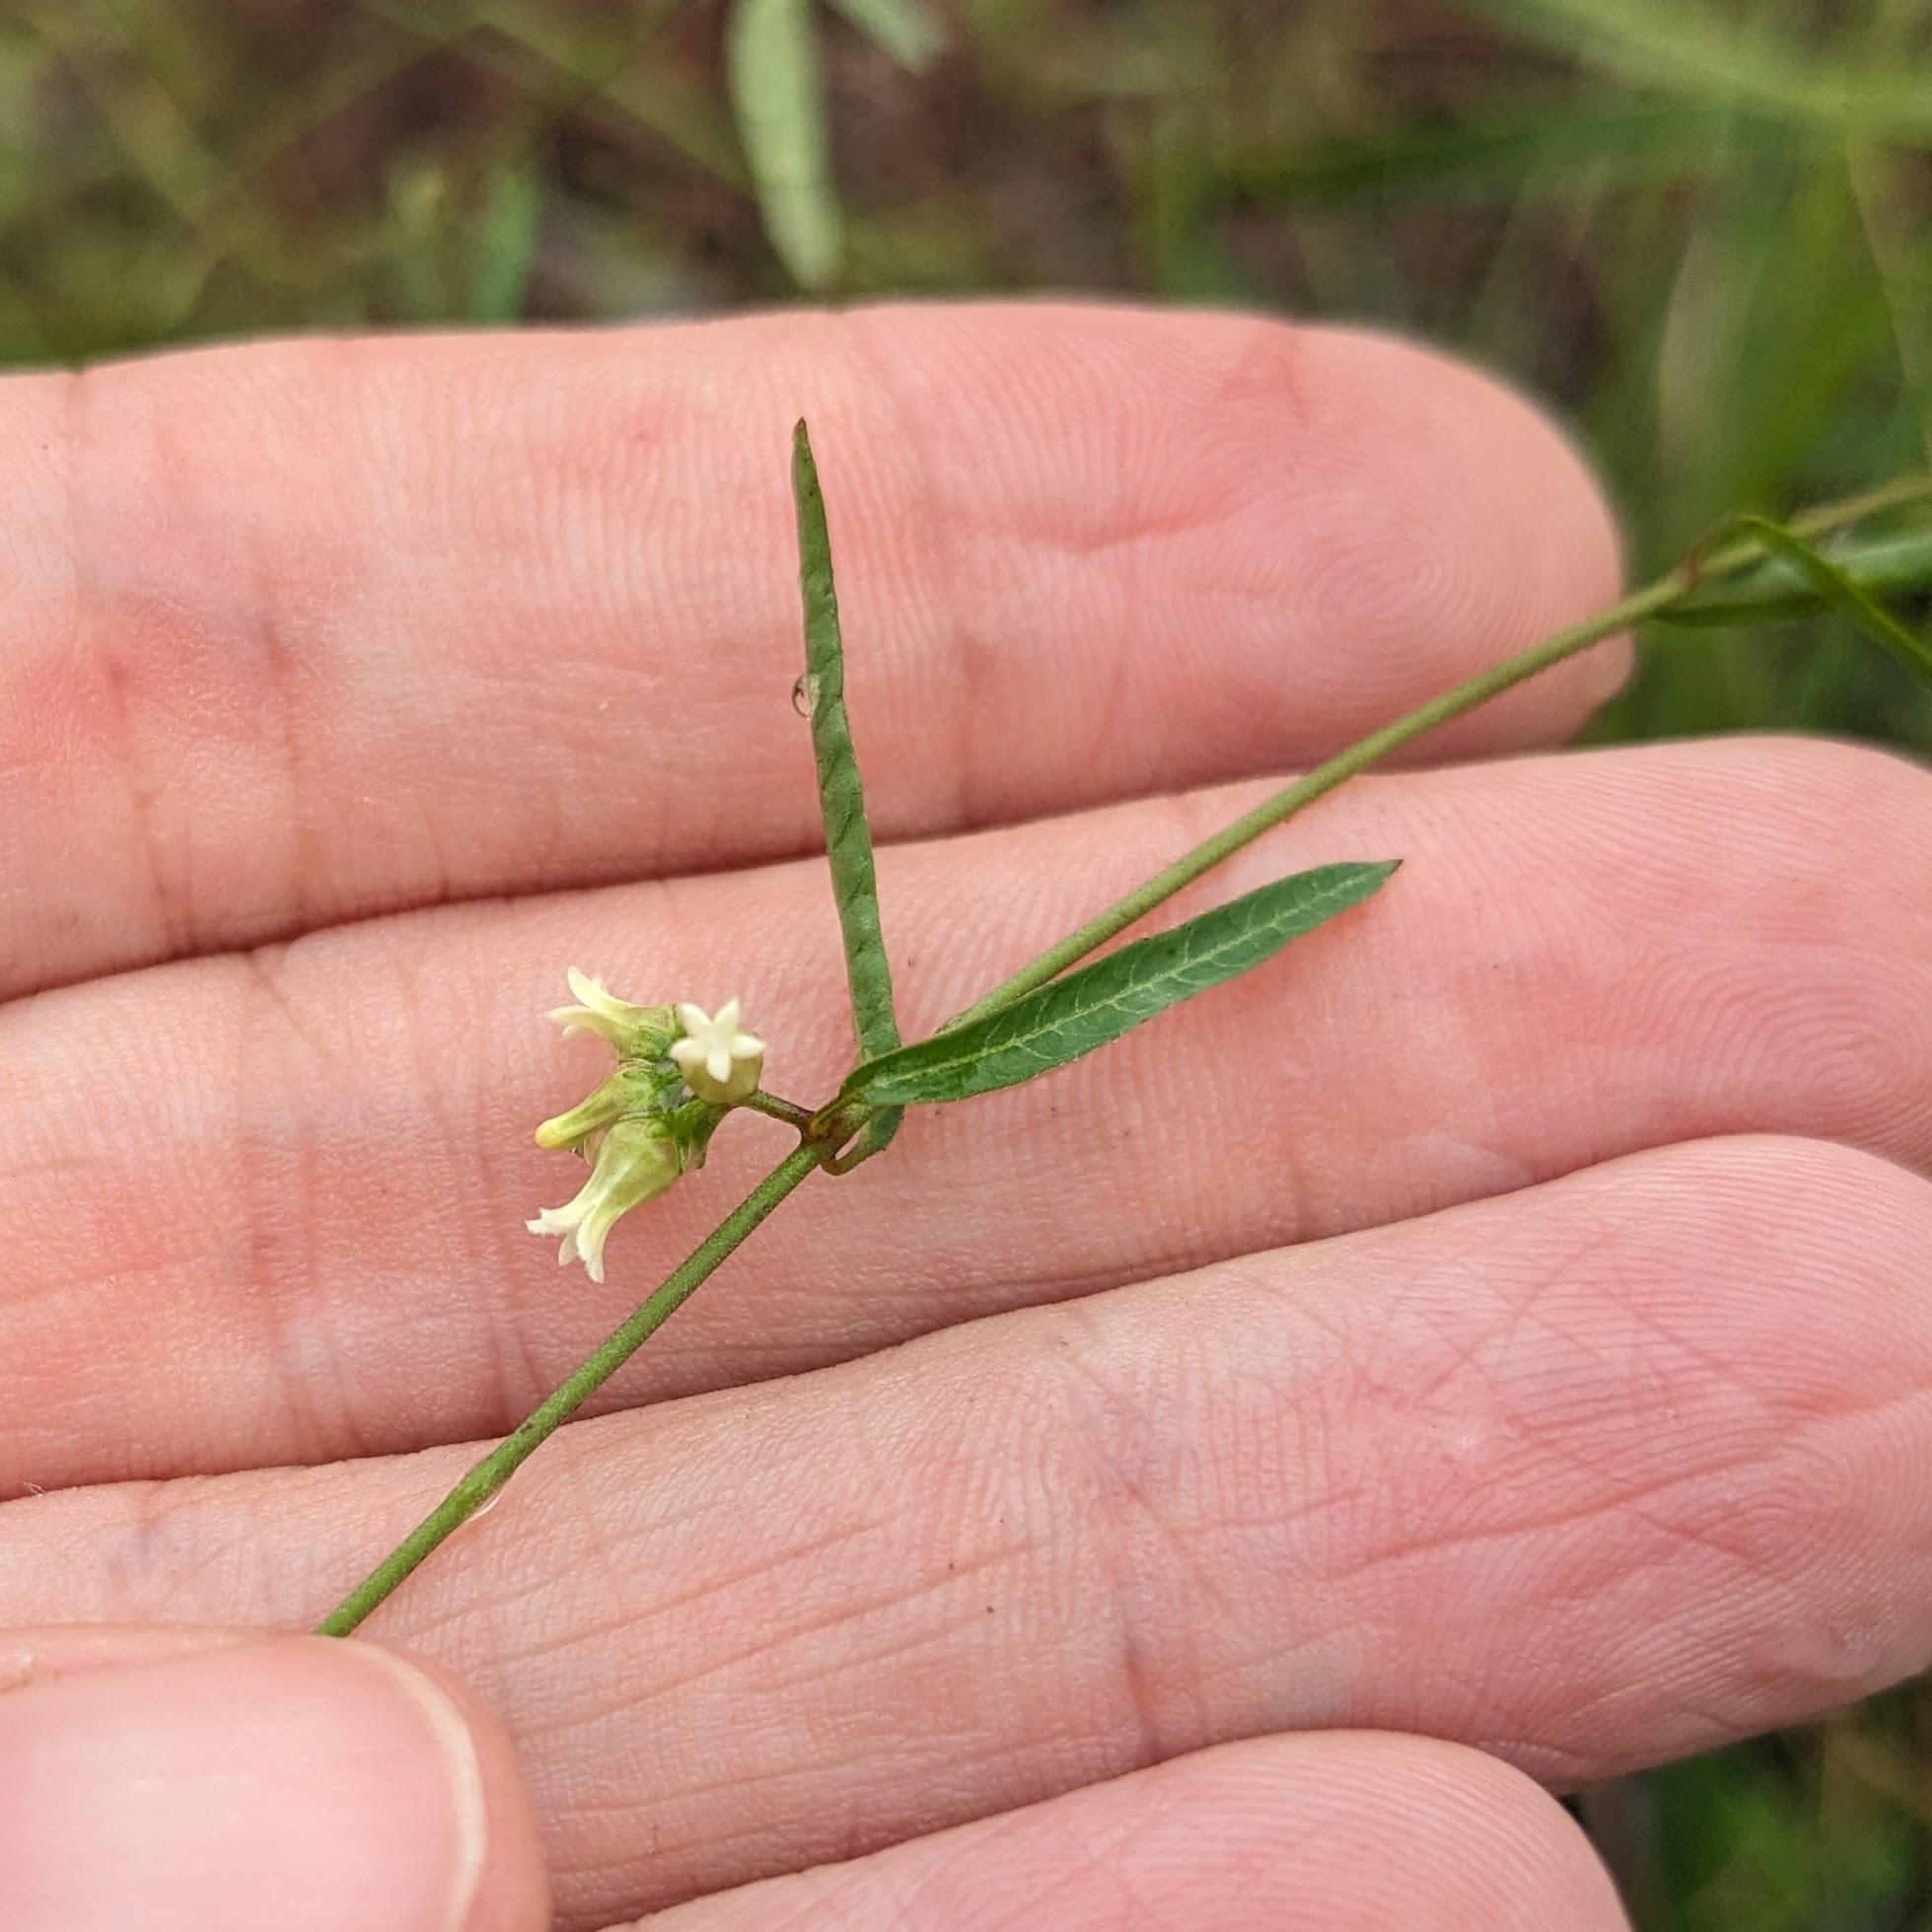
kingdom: Plantae
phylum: Tracheophyta
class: Magnoliopsida
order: Gentianales
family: Apocynaceae
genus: Metastelma
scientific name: Metastelma blodgettii
